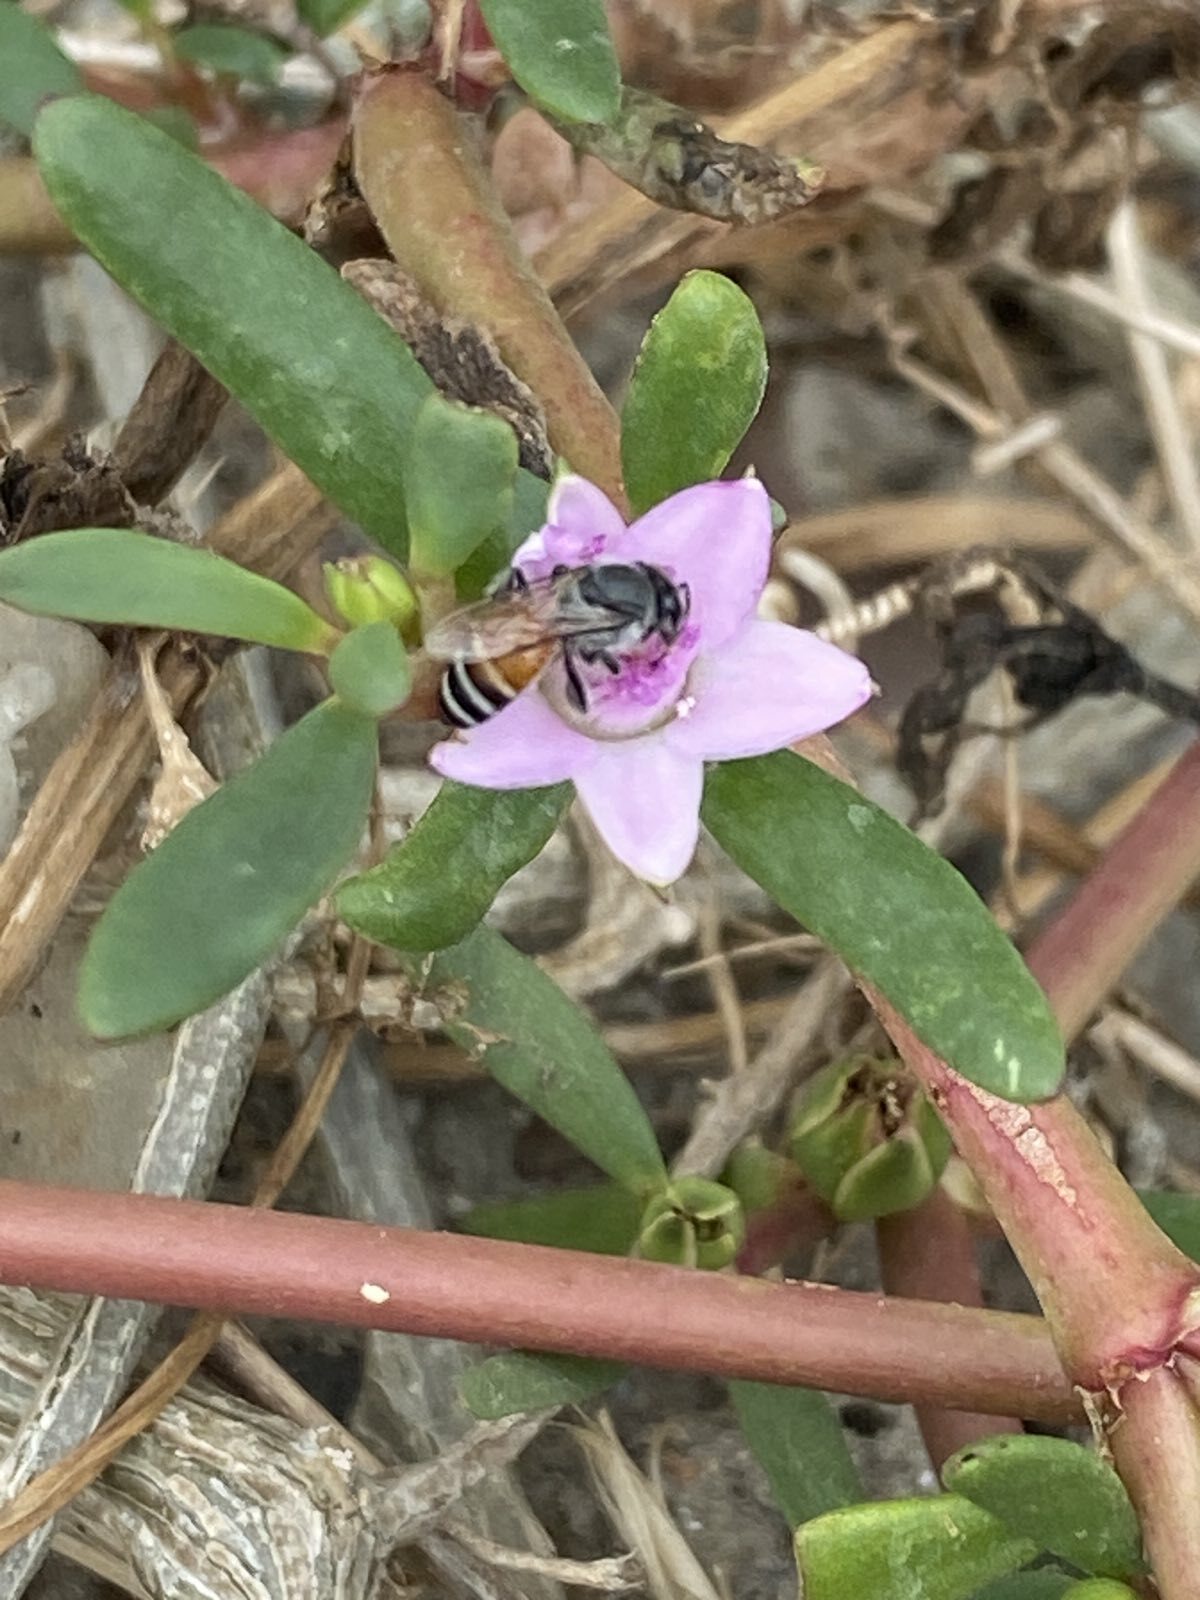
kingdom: Animalia
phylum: Arthropoda
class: Insecta
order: Hymenoptera
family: Apidae
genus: Apis
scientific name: Apis florea
